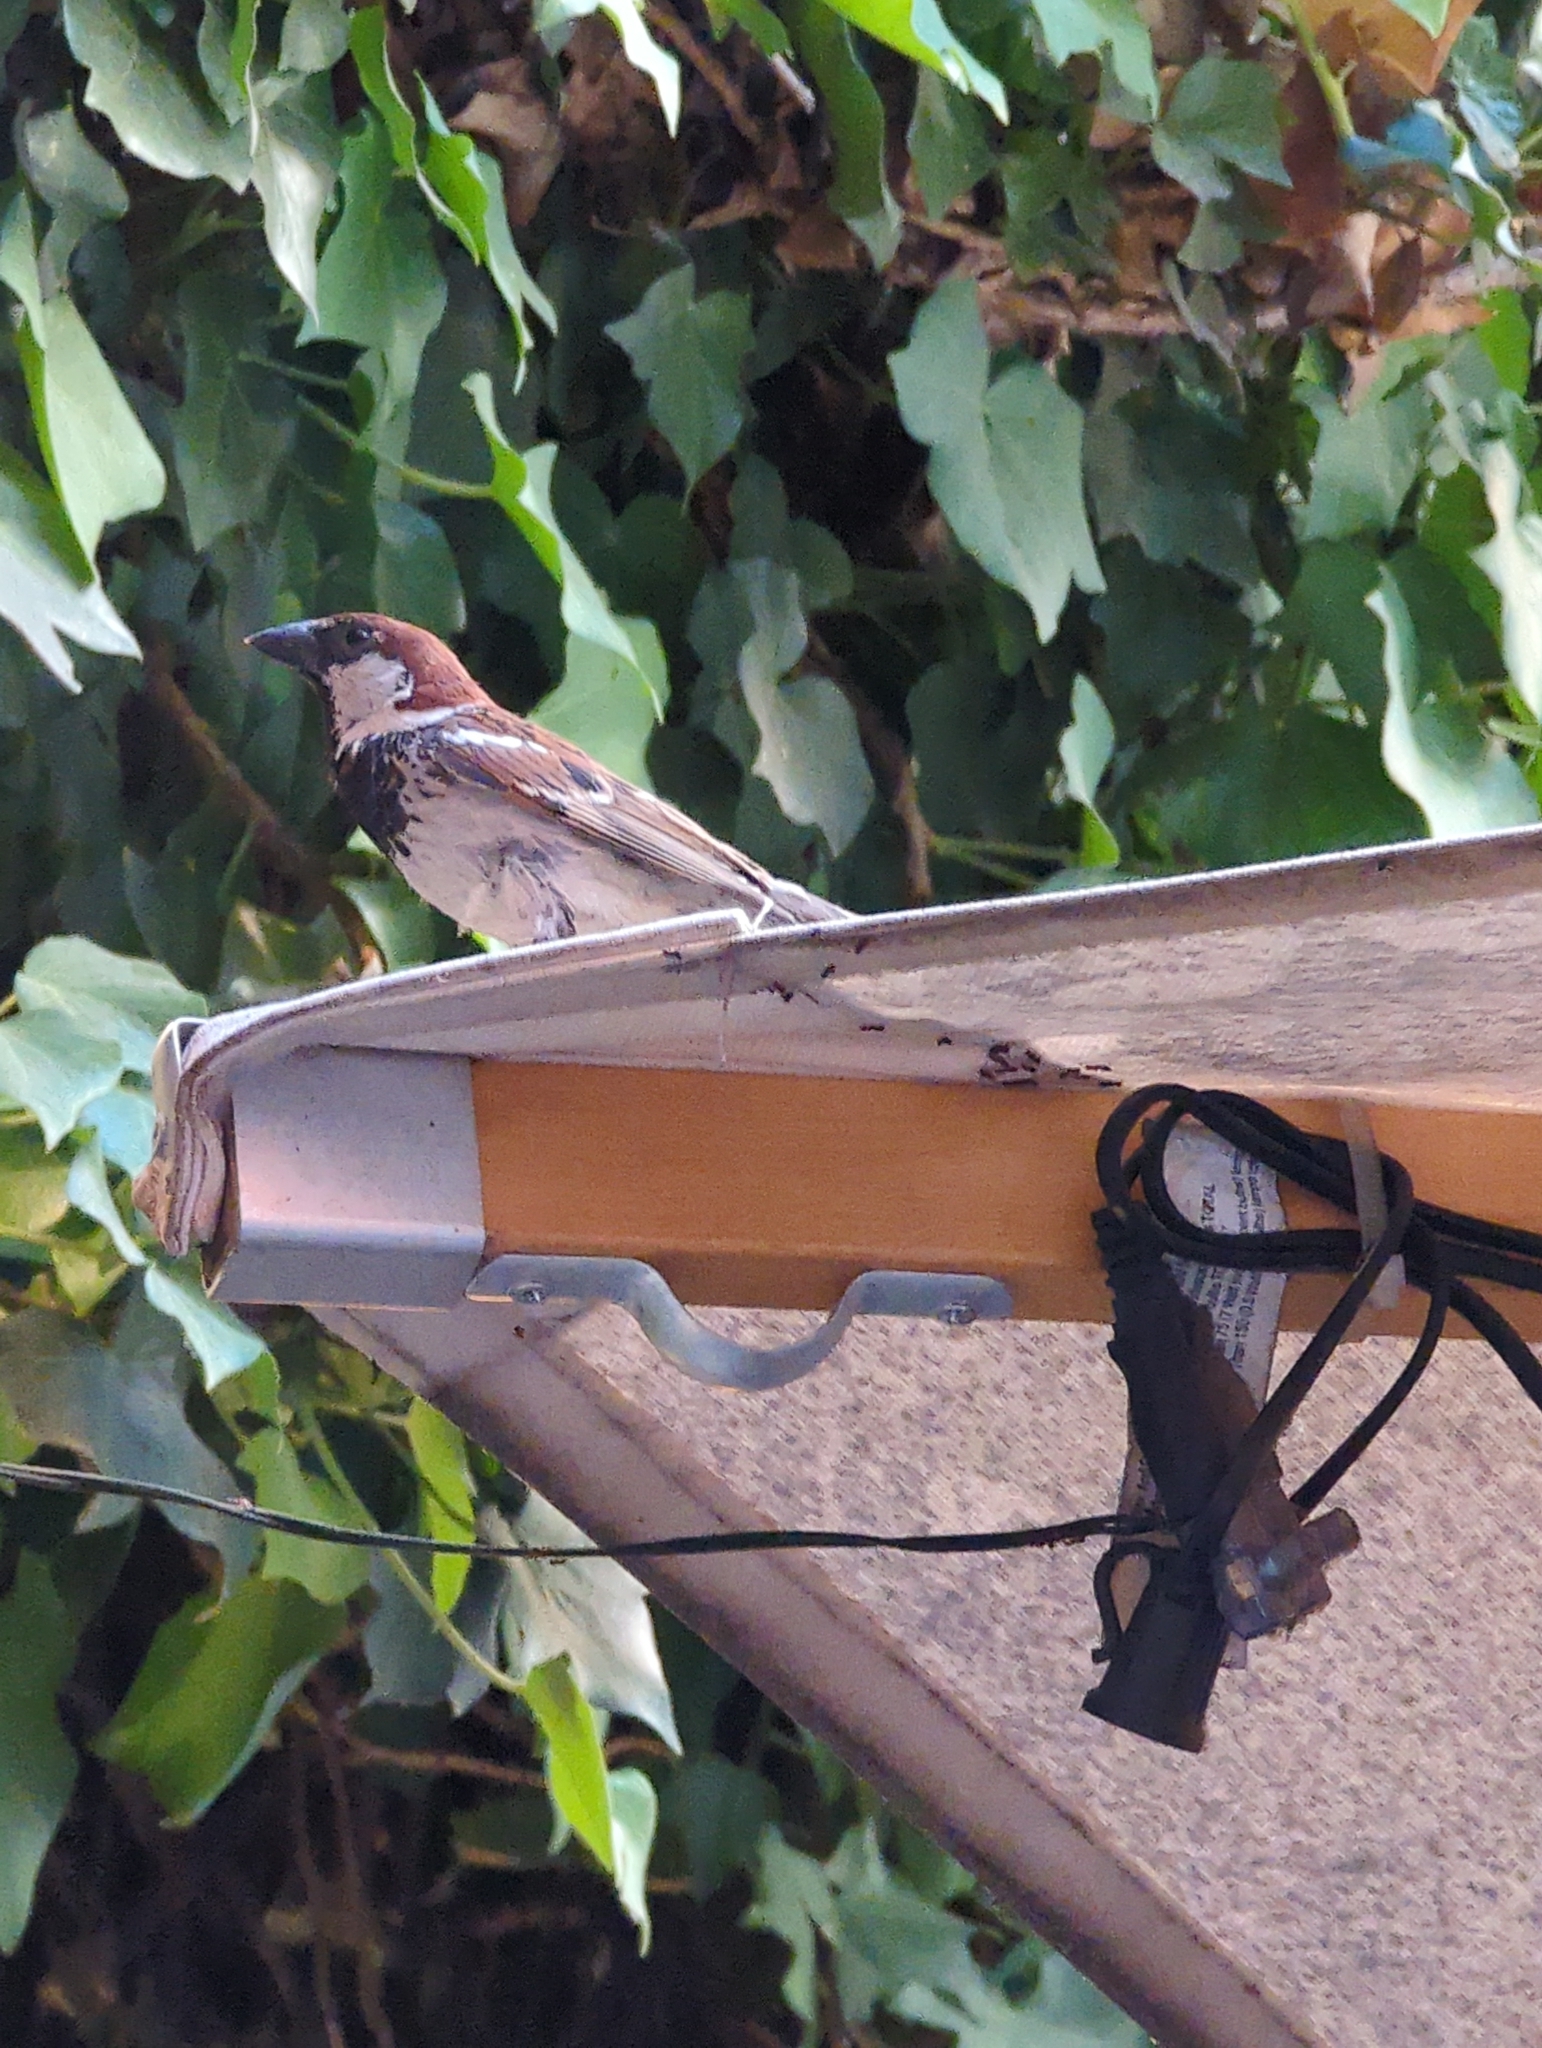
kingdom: Animalia
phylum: Chordata
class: Aves
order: Passeriformes
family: Passeridae
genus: Passer
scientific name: Passer italiae
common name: Italian sparrow
